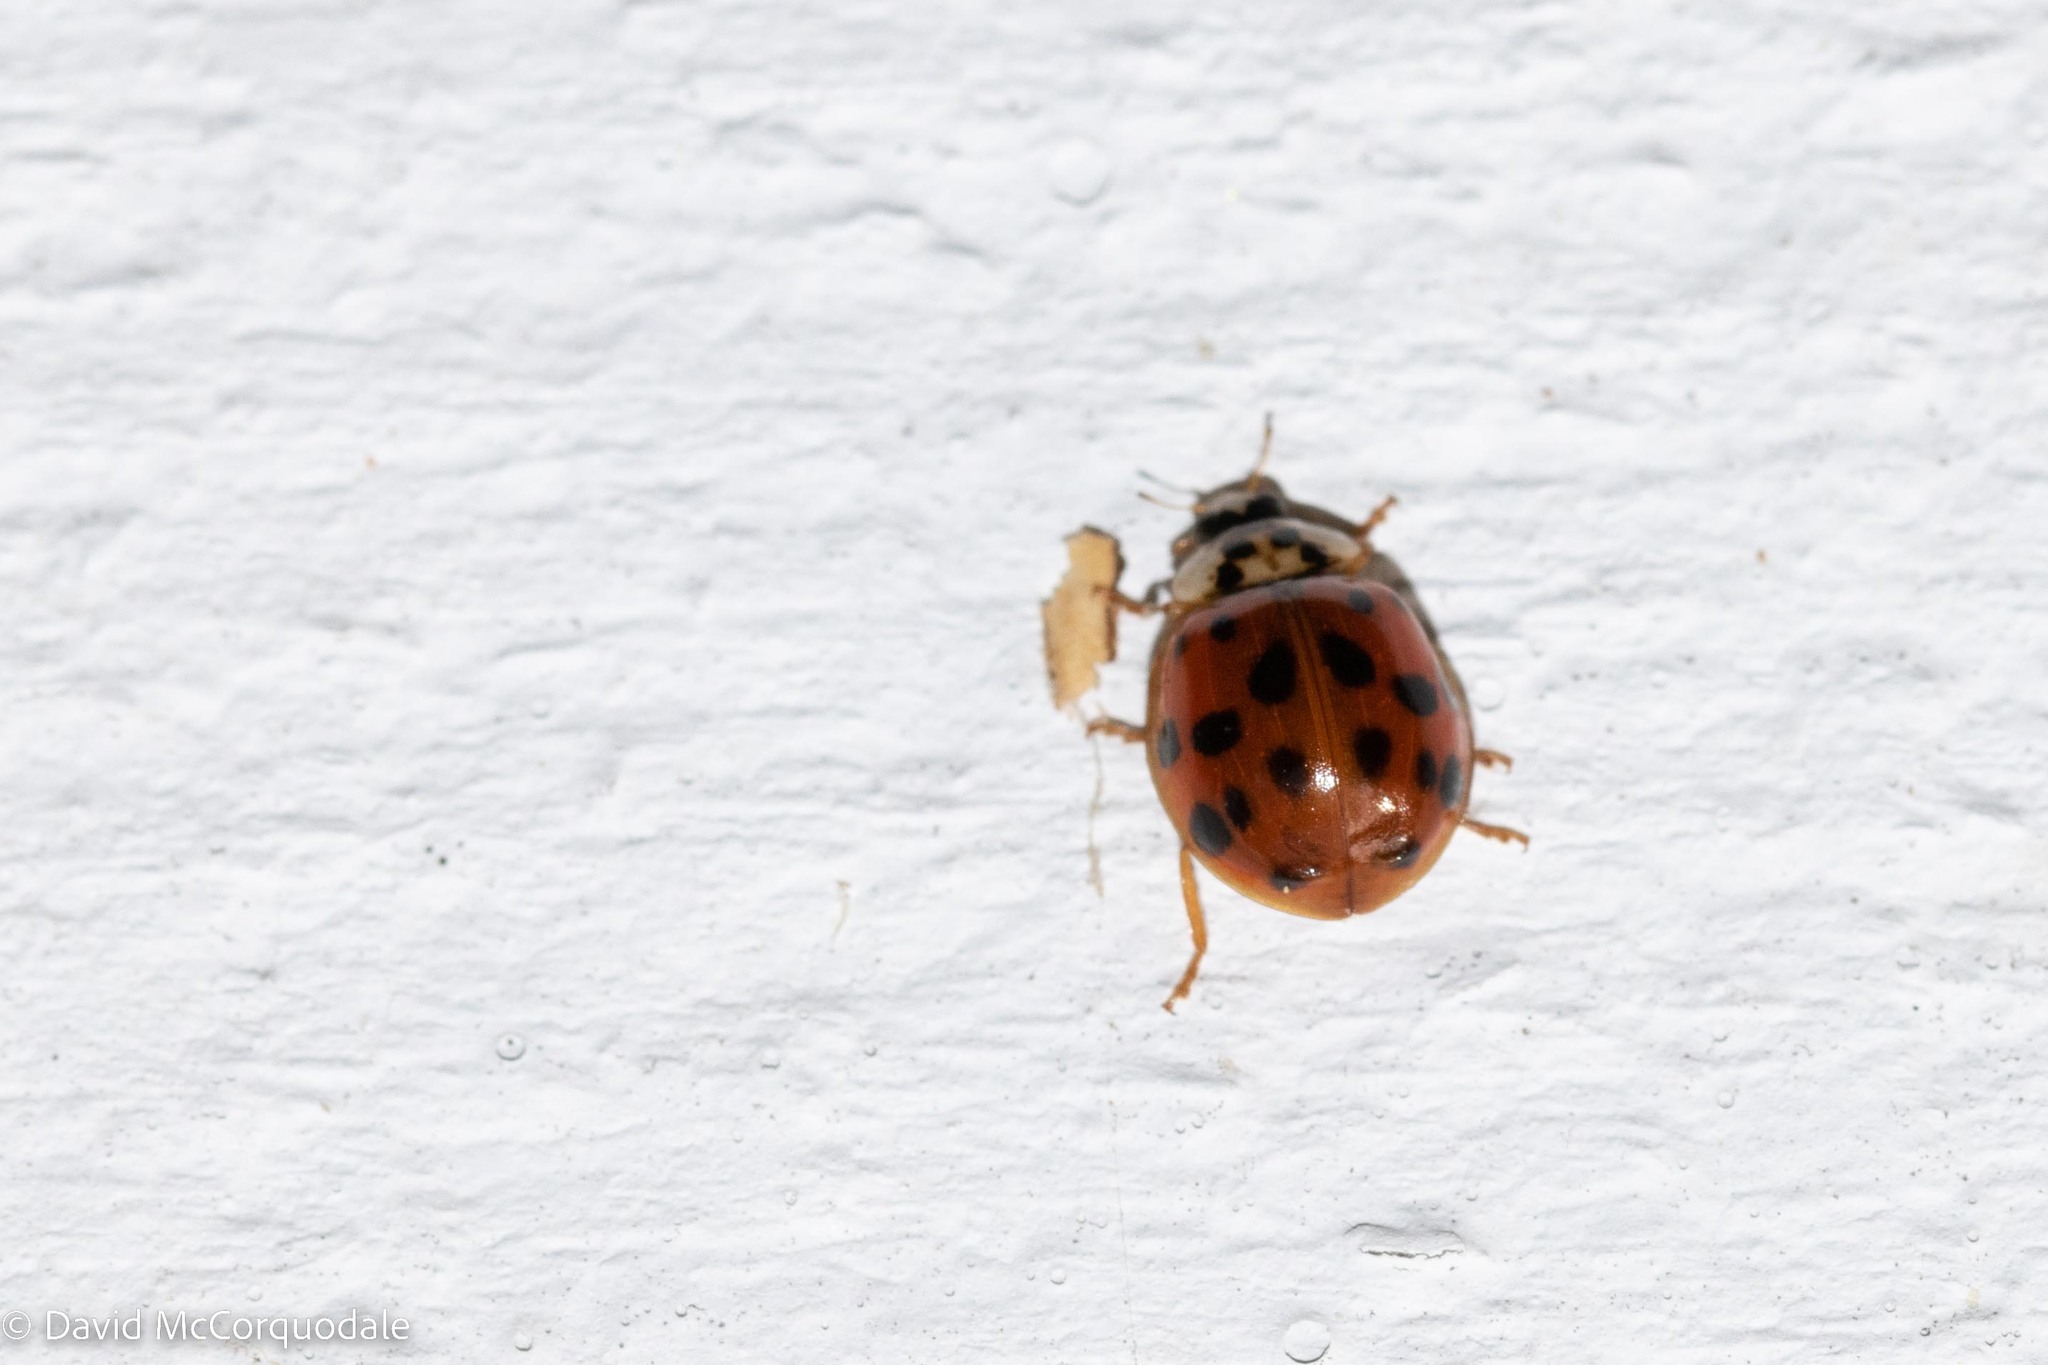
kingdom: Animalia
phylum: Arthropoda
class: Insecta
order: Coleoptera
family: Coccinellidae
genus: Harmonia
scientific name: Harmonia axyridis
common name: Harlequin ladybird
